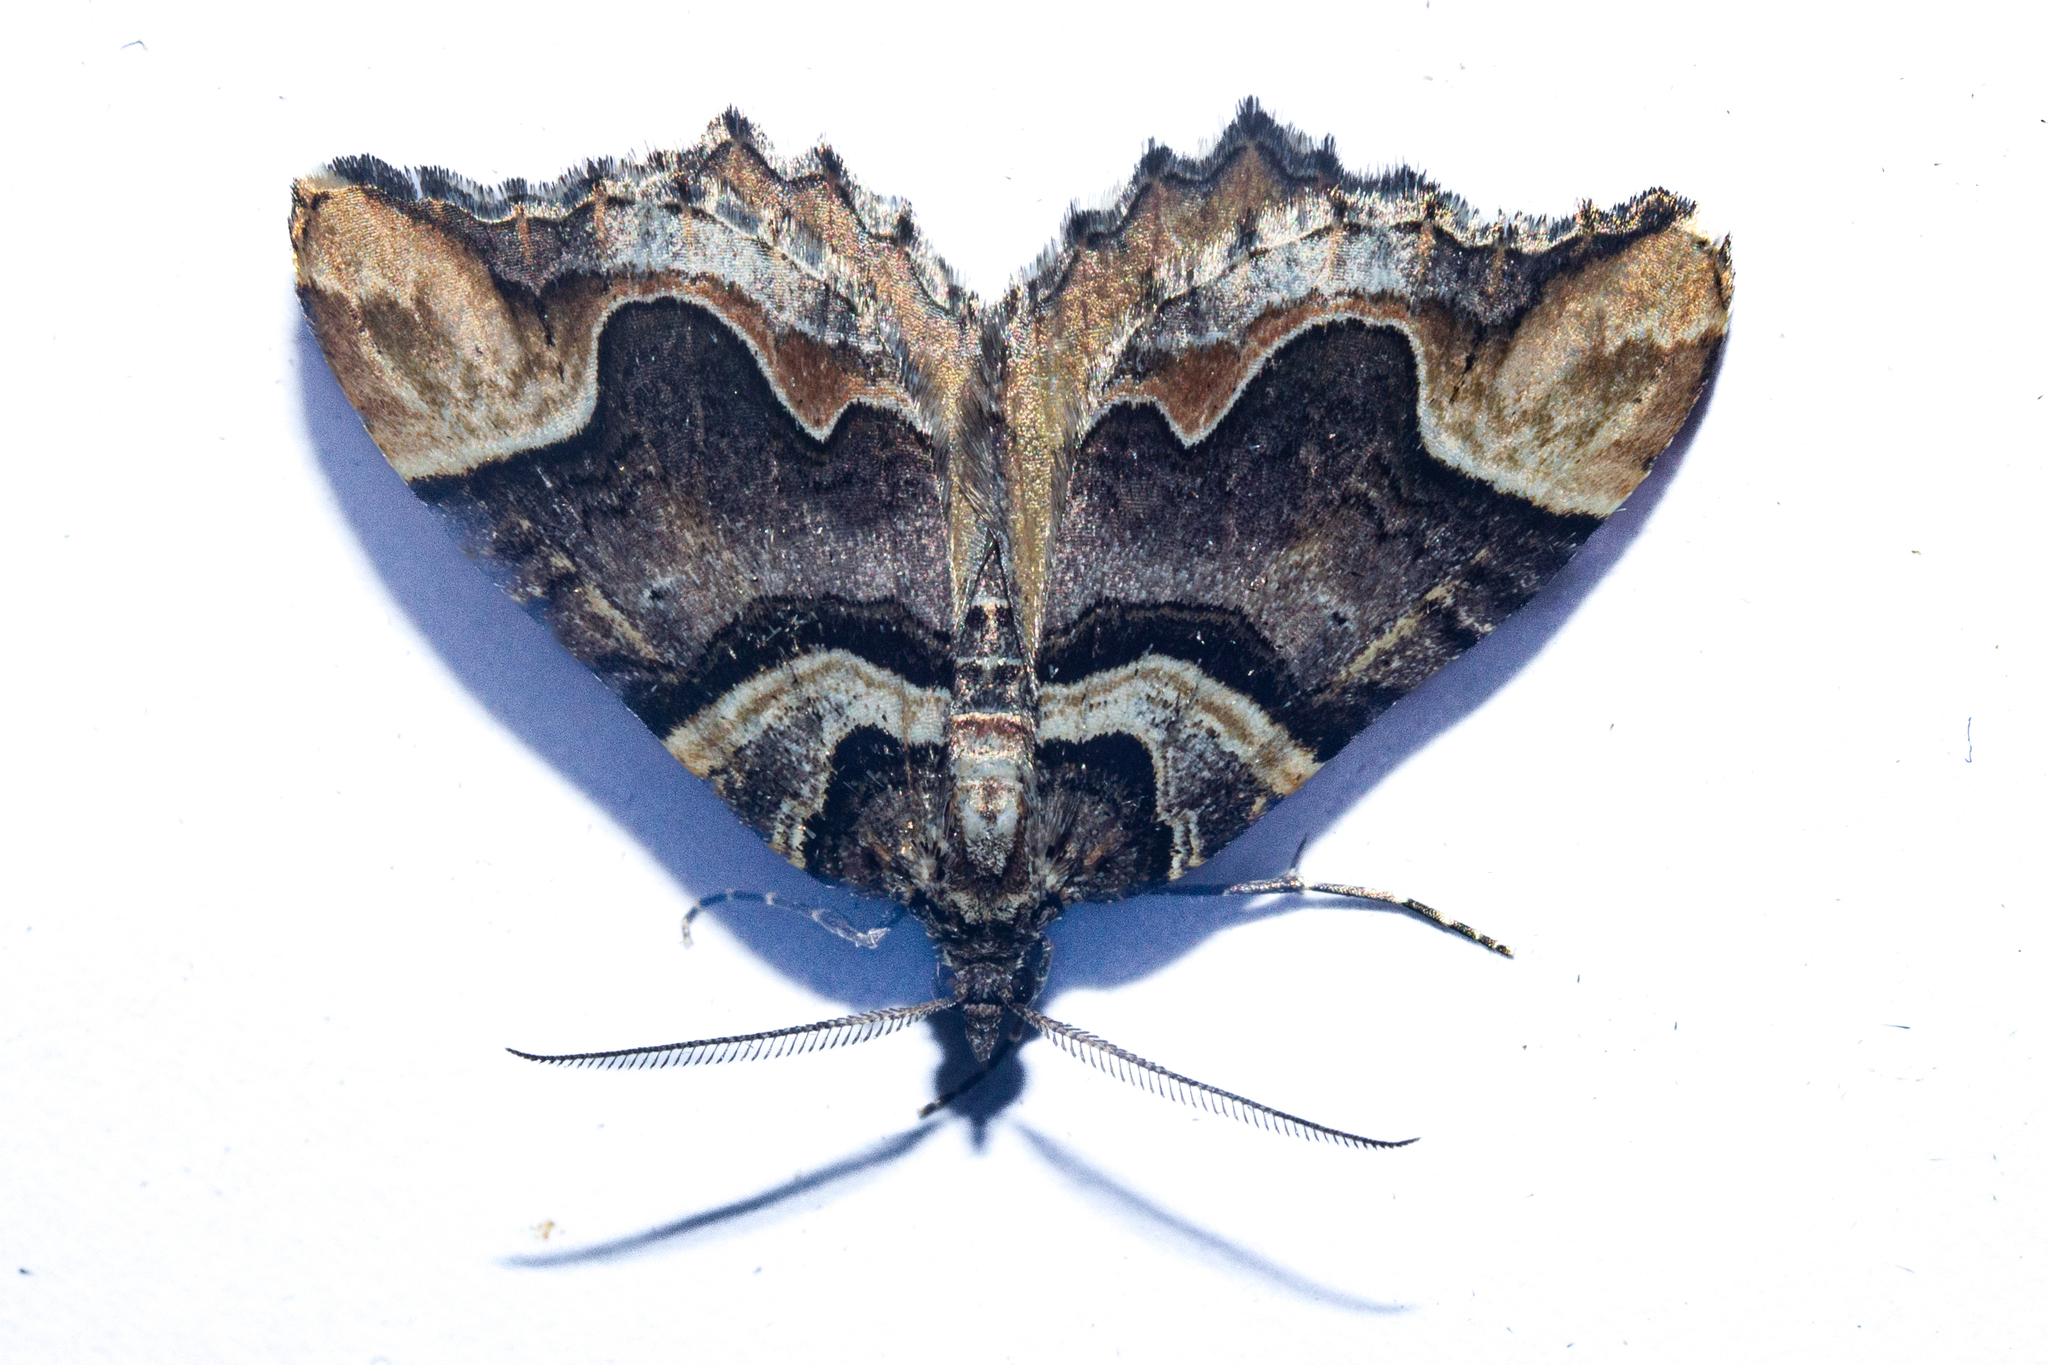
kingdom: Animalia
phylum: Arthropoda
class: Insecta
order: Lepidoptera
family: Geometridae
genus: Asaphodes
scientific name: Asaphodes chlamydota
